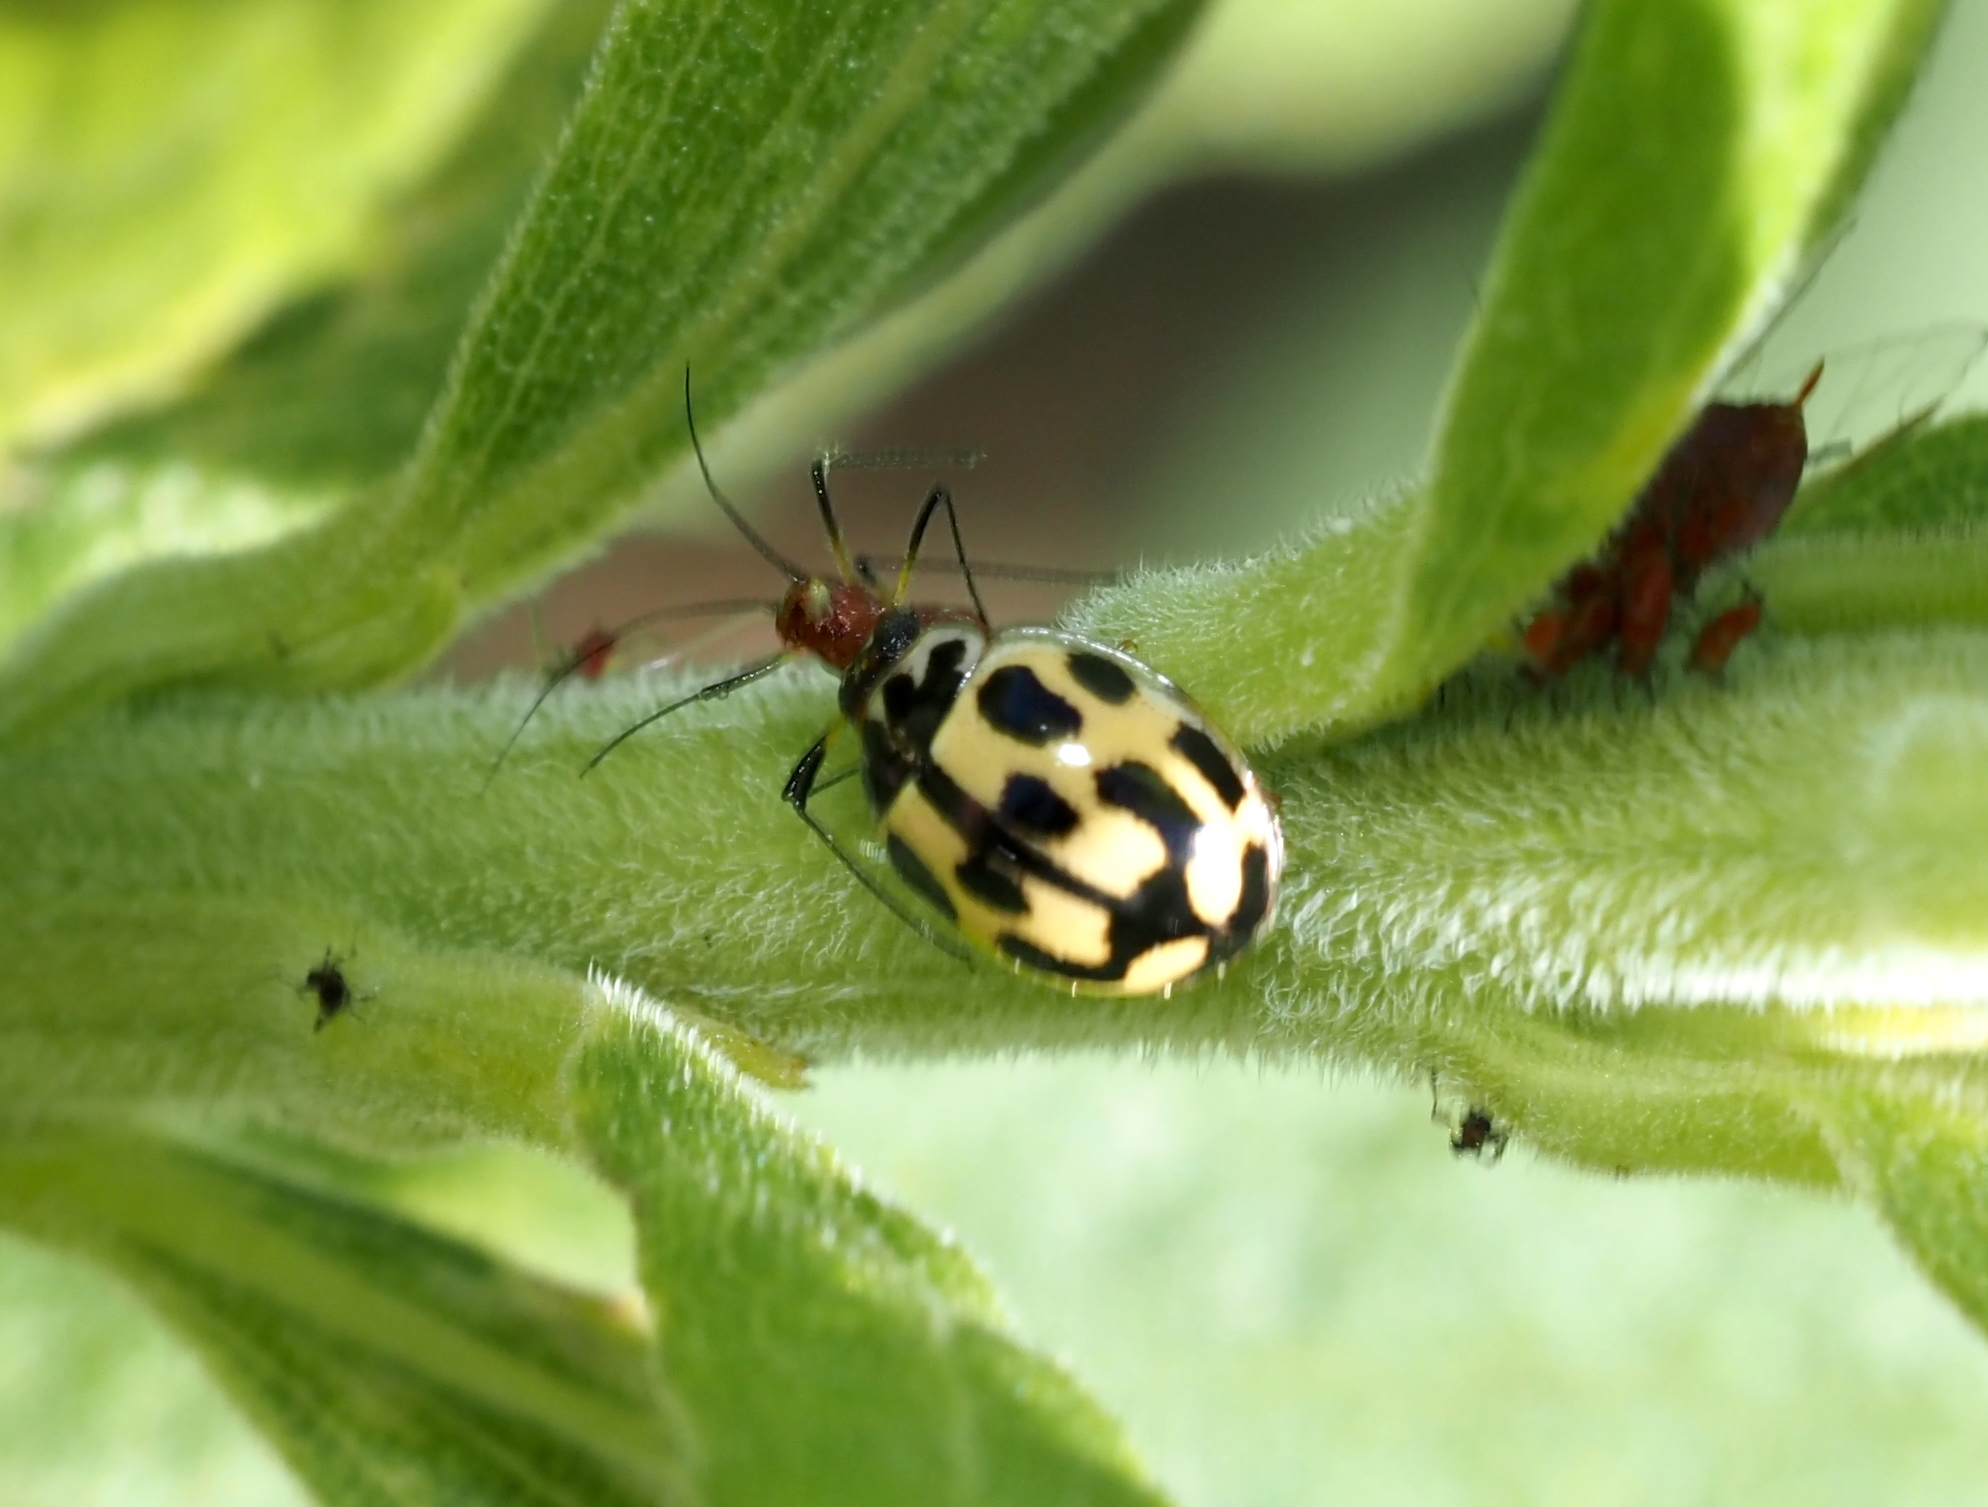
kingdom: Animalia
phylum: Arthropoda
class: Insecta
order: Coleoptera
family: Coccinellidae
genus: Propylaea
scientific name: Propylaea quatuordecimpunctata
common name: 14-spotted ladybird beetle
